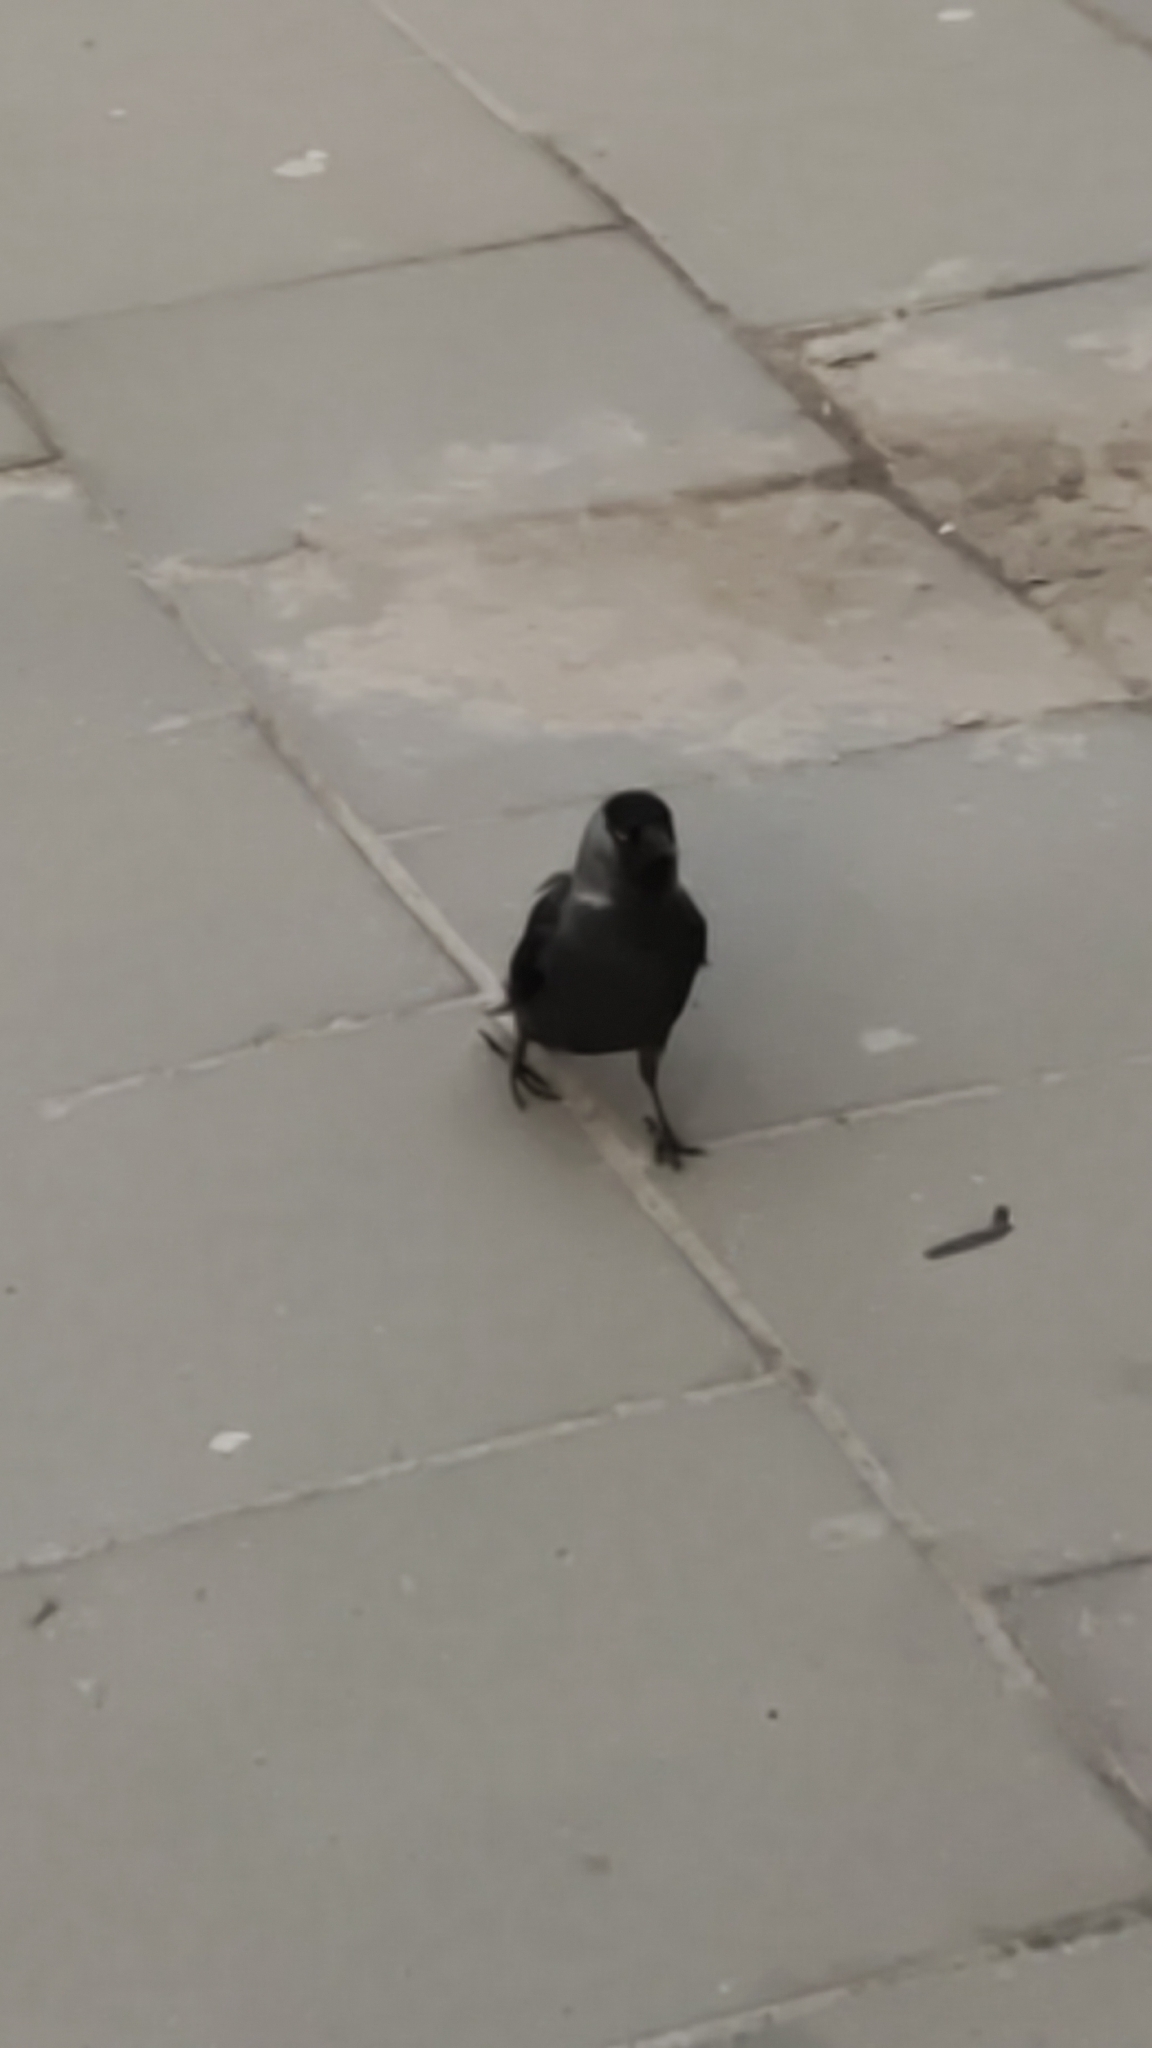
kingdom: Animalia
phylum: Chordata
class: Aves
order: Passeriformes
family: Corvidae
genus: Coloeus
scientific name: Coloeus monedula
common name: Western jackdaw
